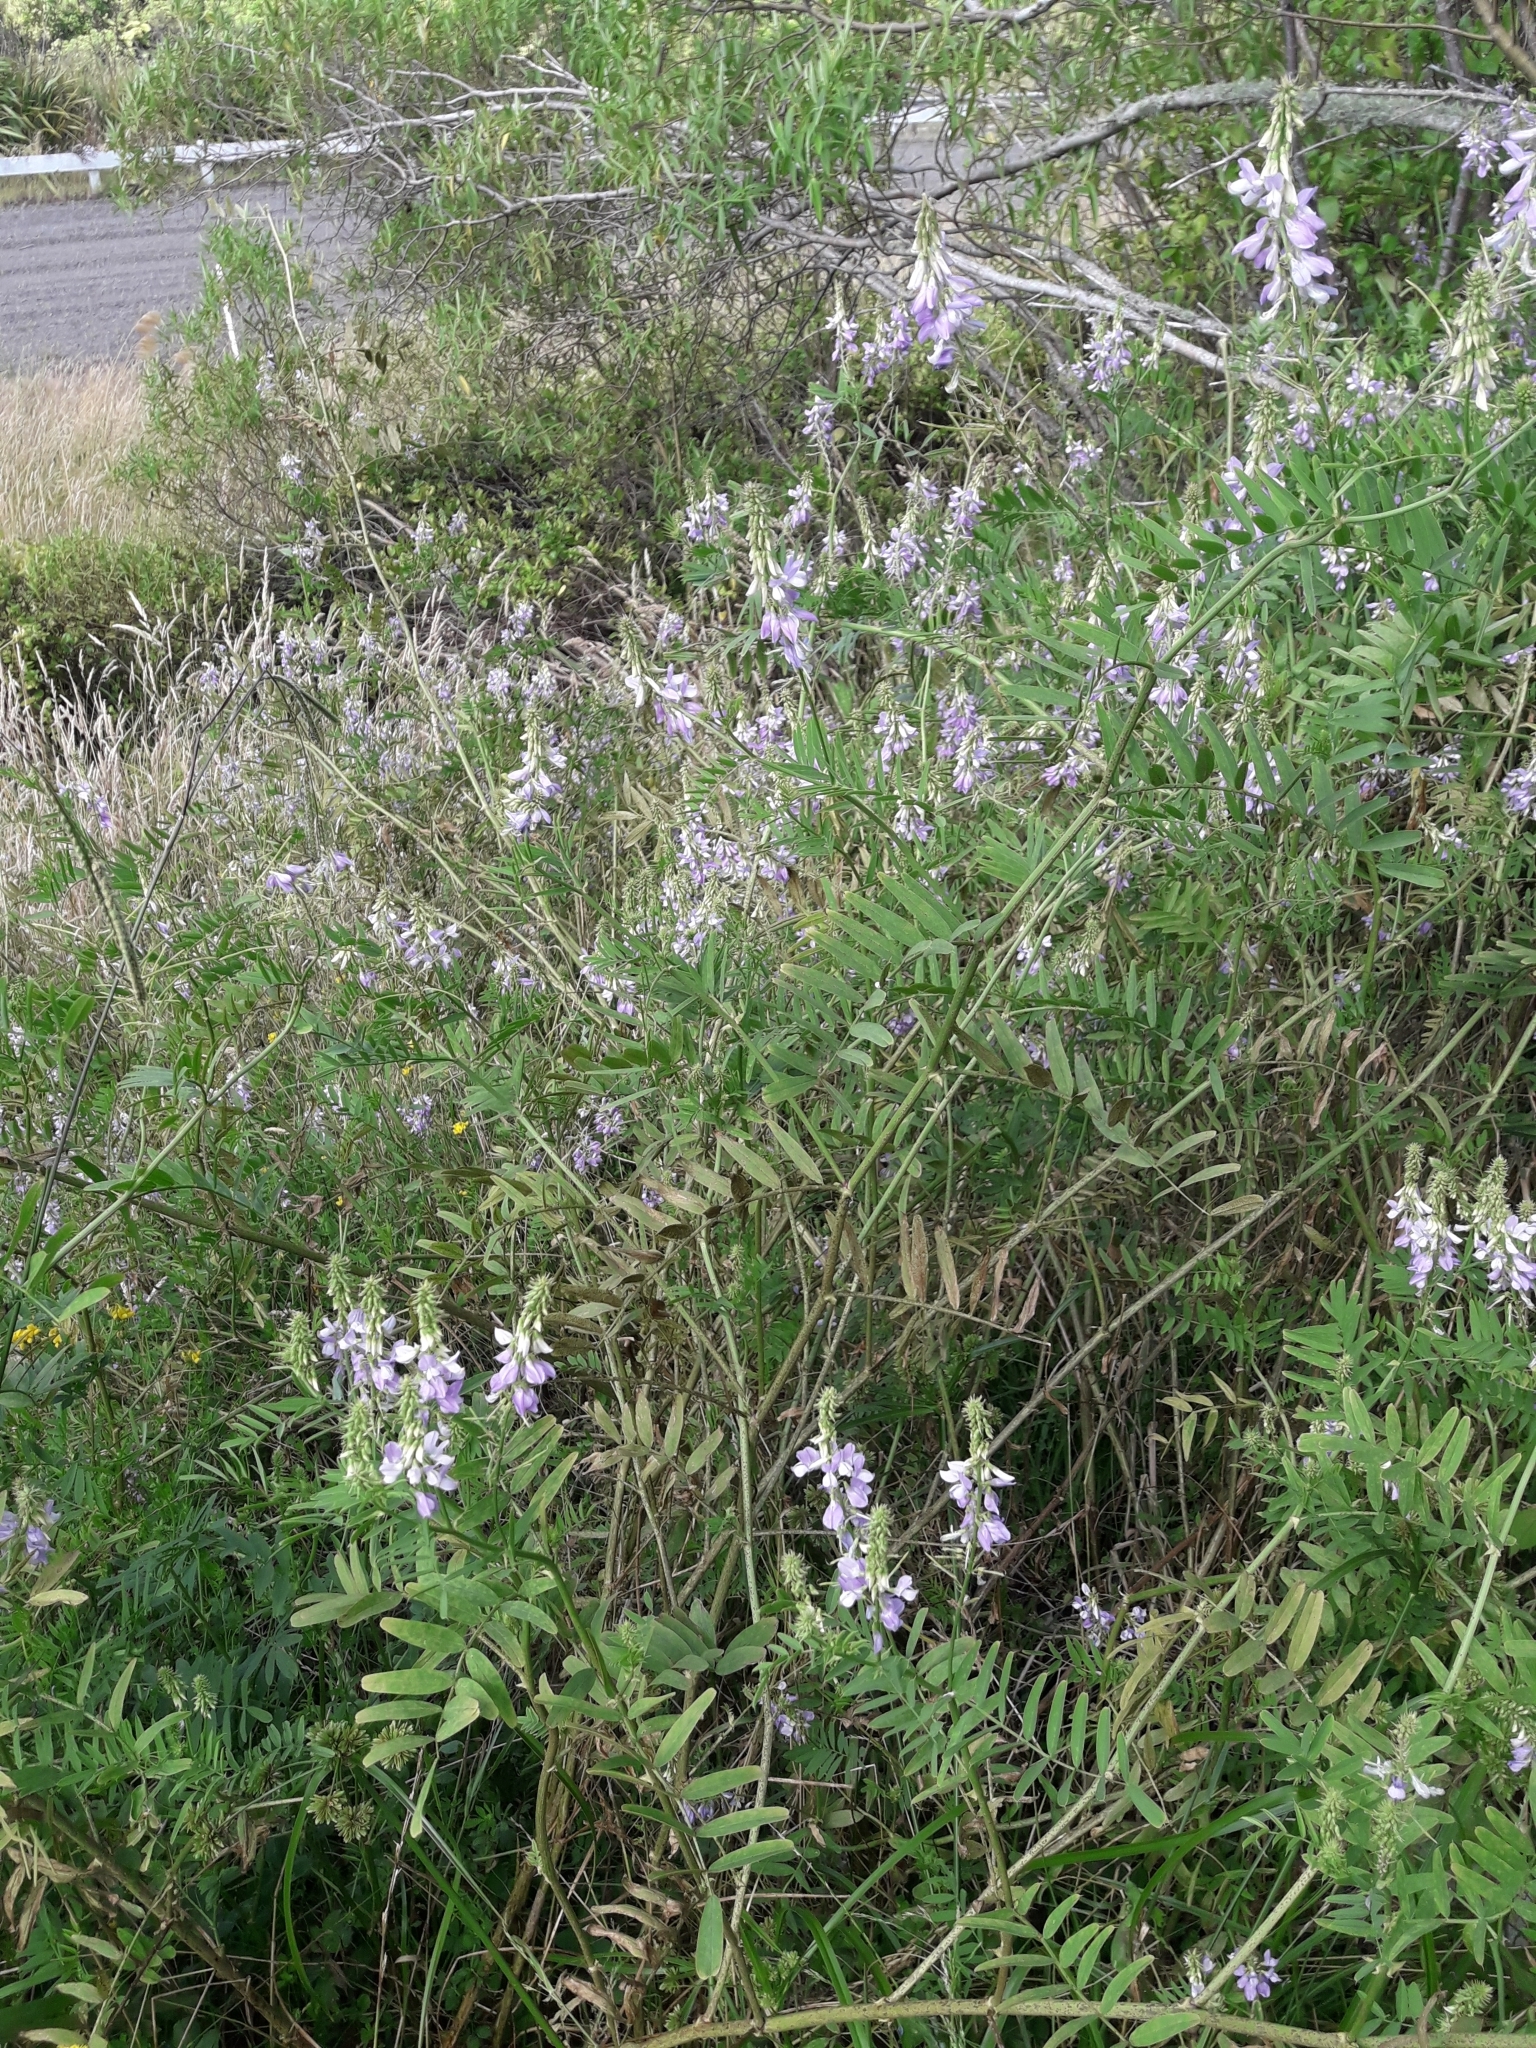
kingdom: Plantae
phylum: Tracheophyta
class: Magnoliopsida
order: Fabales
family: Fabaceae
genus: Galega
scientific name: Galega officinalis
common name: Goat's-rue
